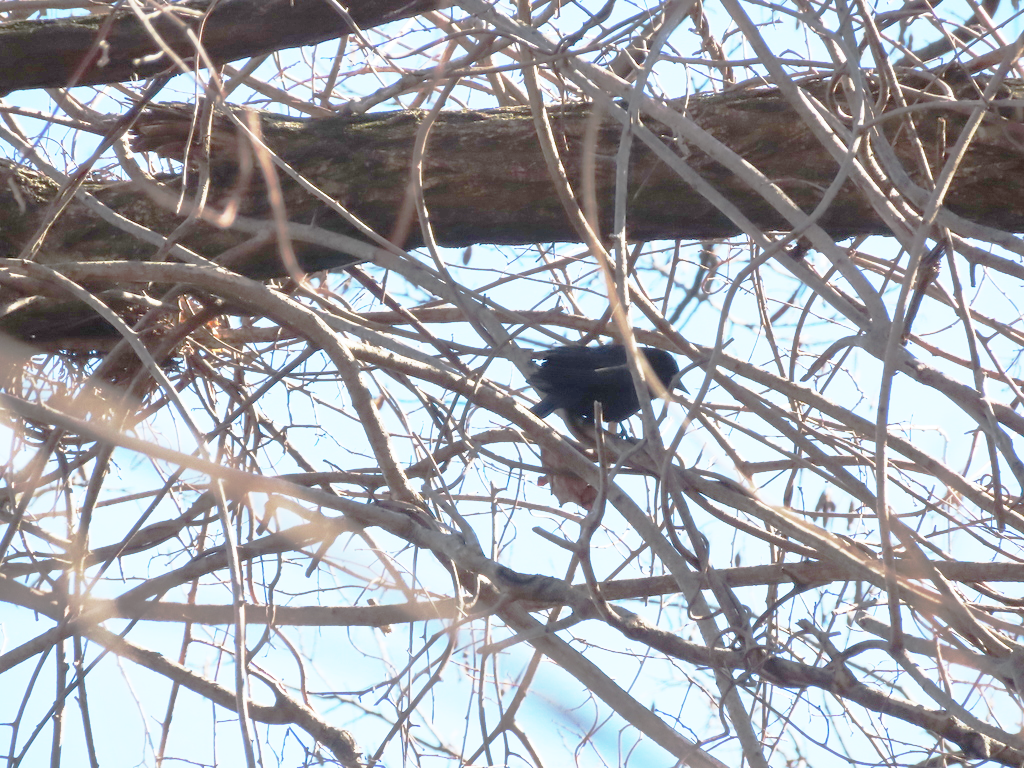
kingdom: Animalia
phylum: Chordata
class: Aves
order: Passeriformes
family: Icteridae
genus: Agelaius
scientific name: Agelaius phoeniceus
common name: Red-winged blackbird
